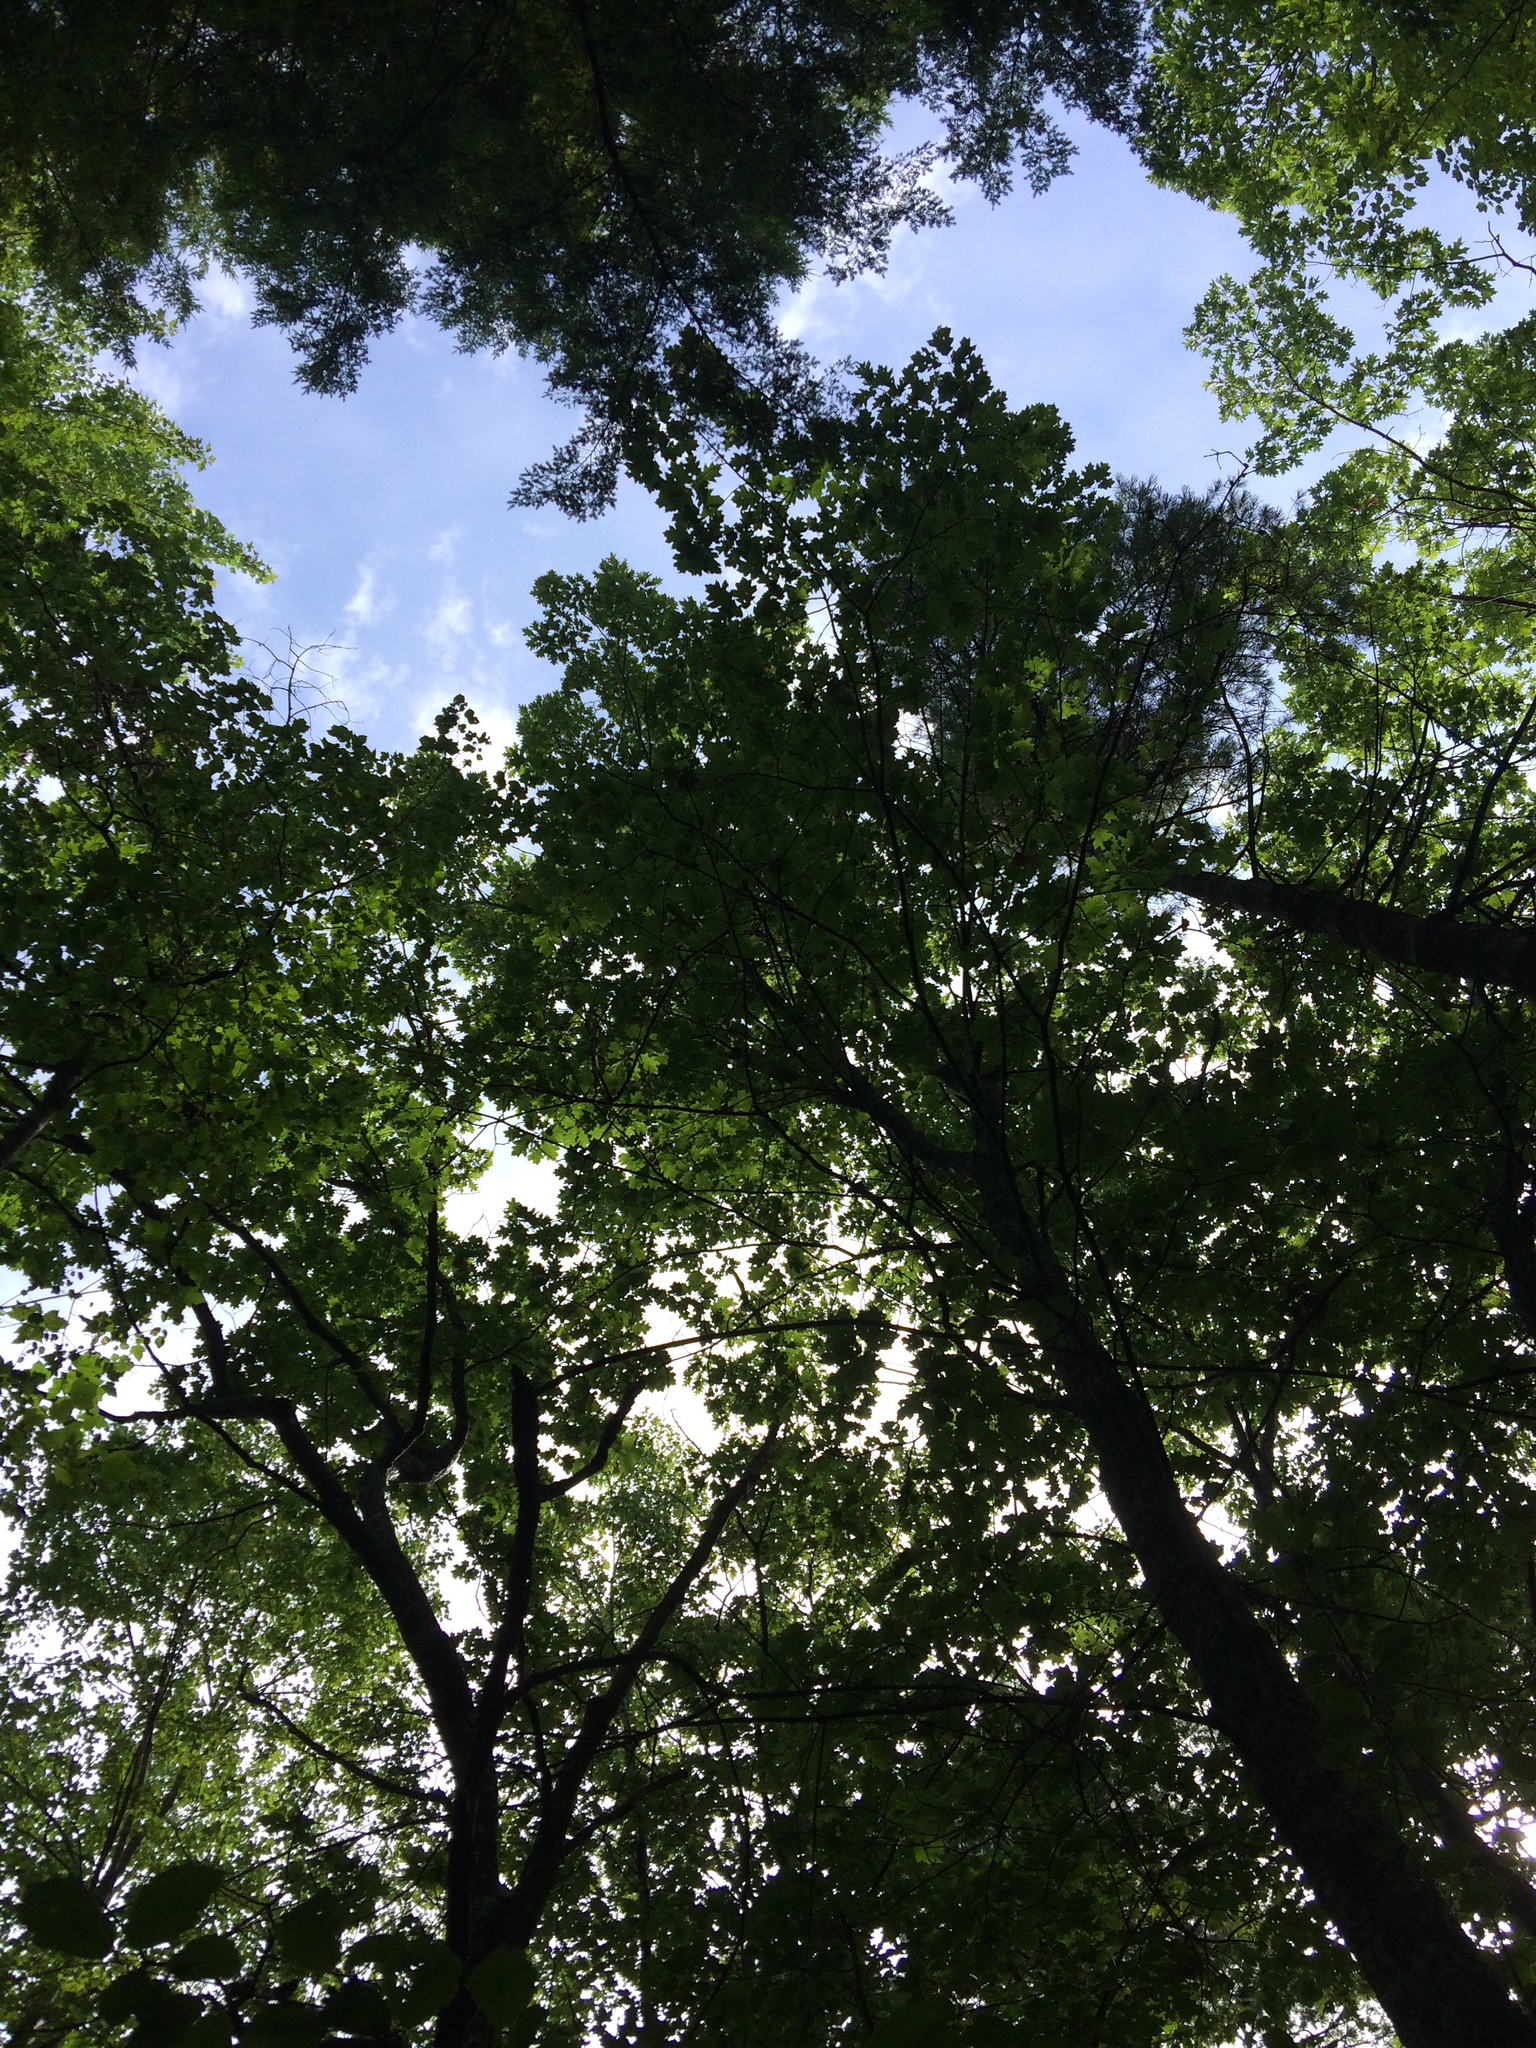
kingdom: Plantae
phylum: Tracheophyta
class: Magnoliopsida
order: Fagales
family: Fagaceae
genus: Quercus
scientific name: Quercus rubra
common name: Red oak
